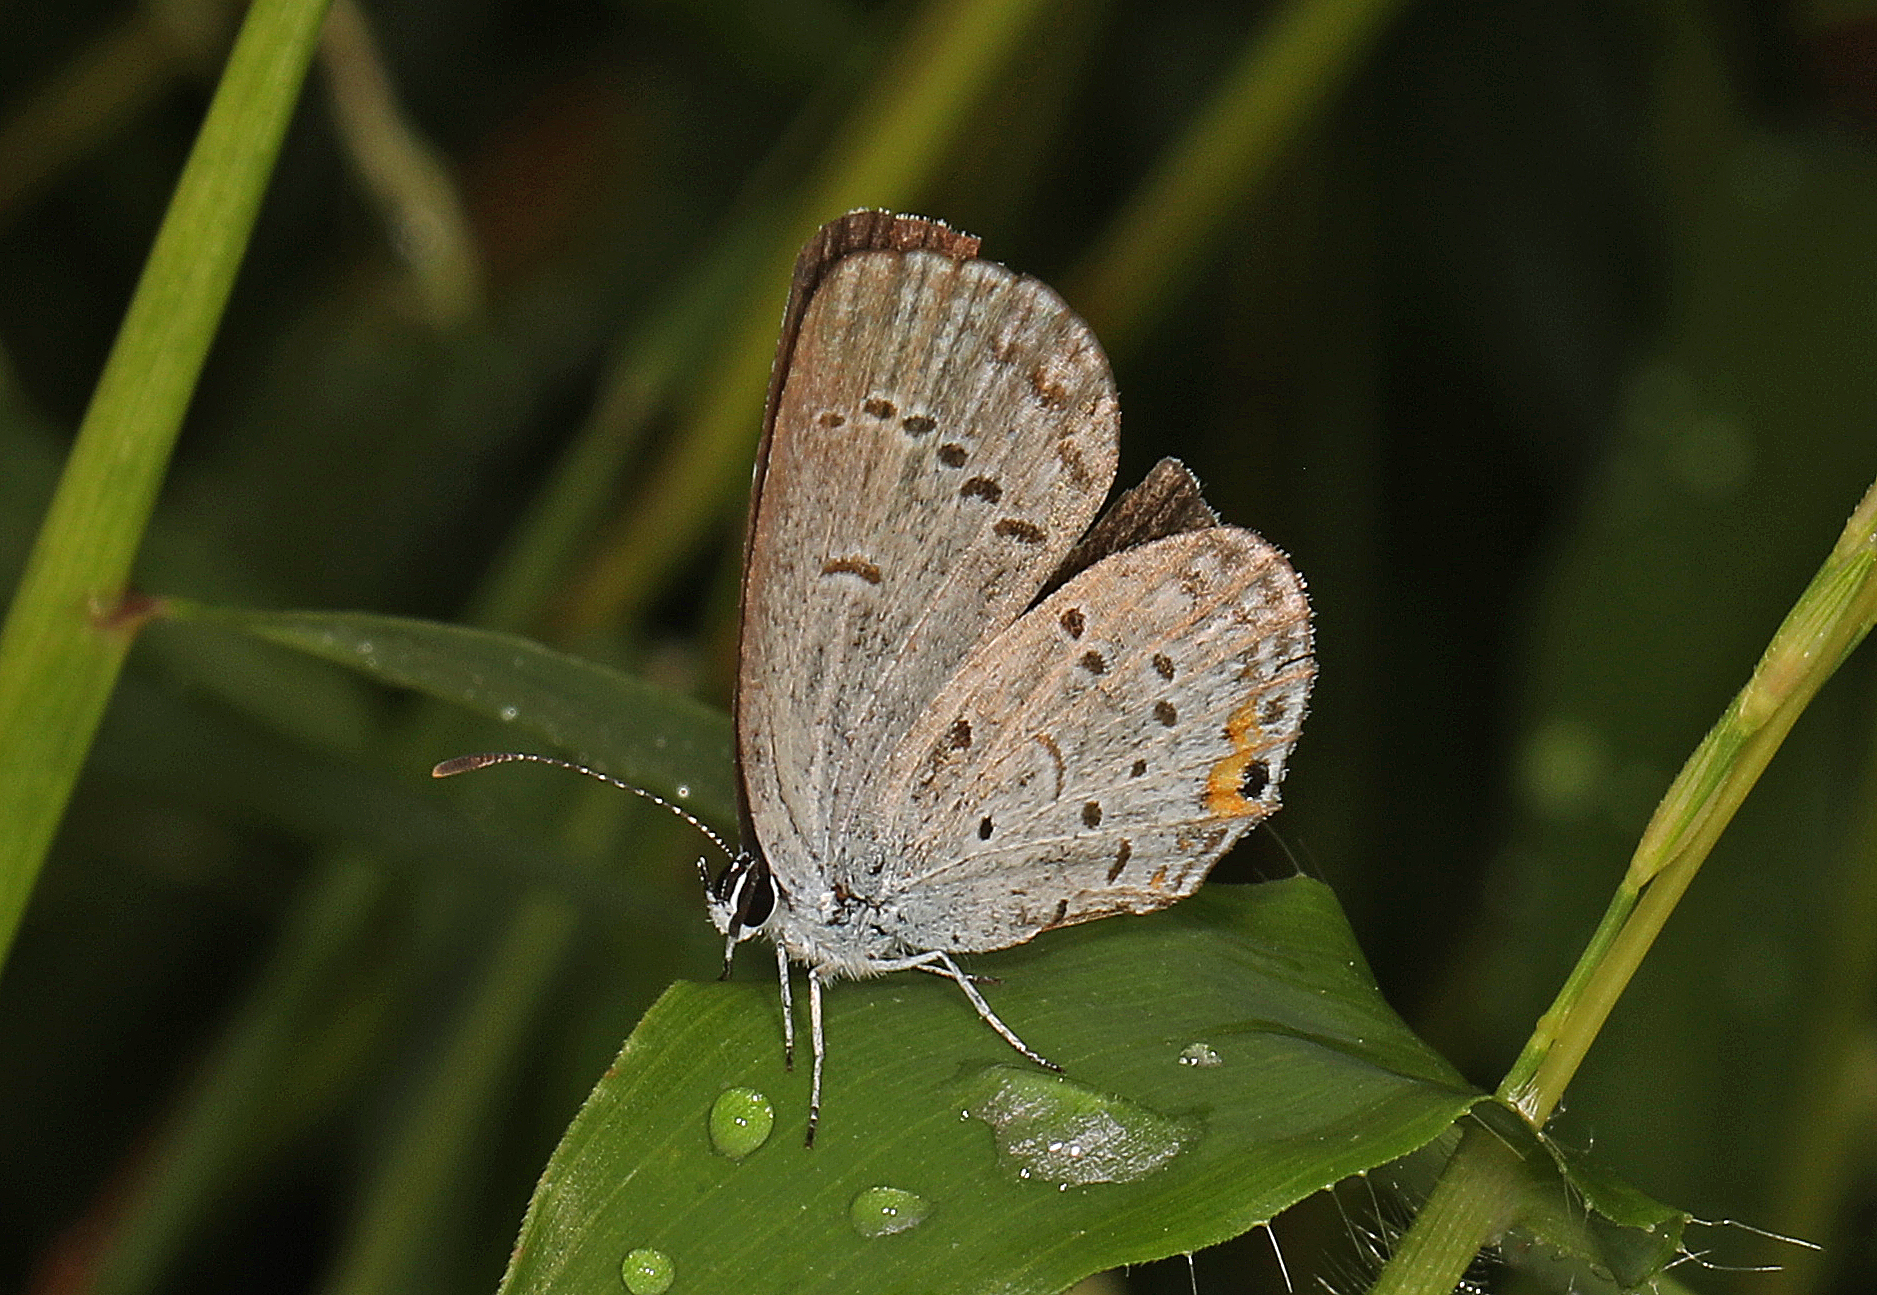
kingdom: Animalia
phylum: Arthropoda
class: Insecta
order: Lepidoptera
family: Lycaenidae
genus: Elkalyce
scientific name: Elkalyce comyntas
